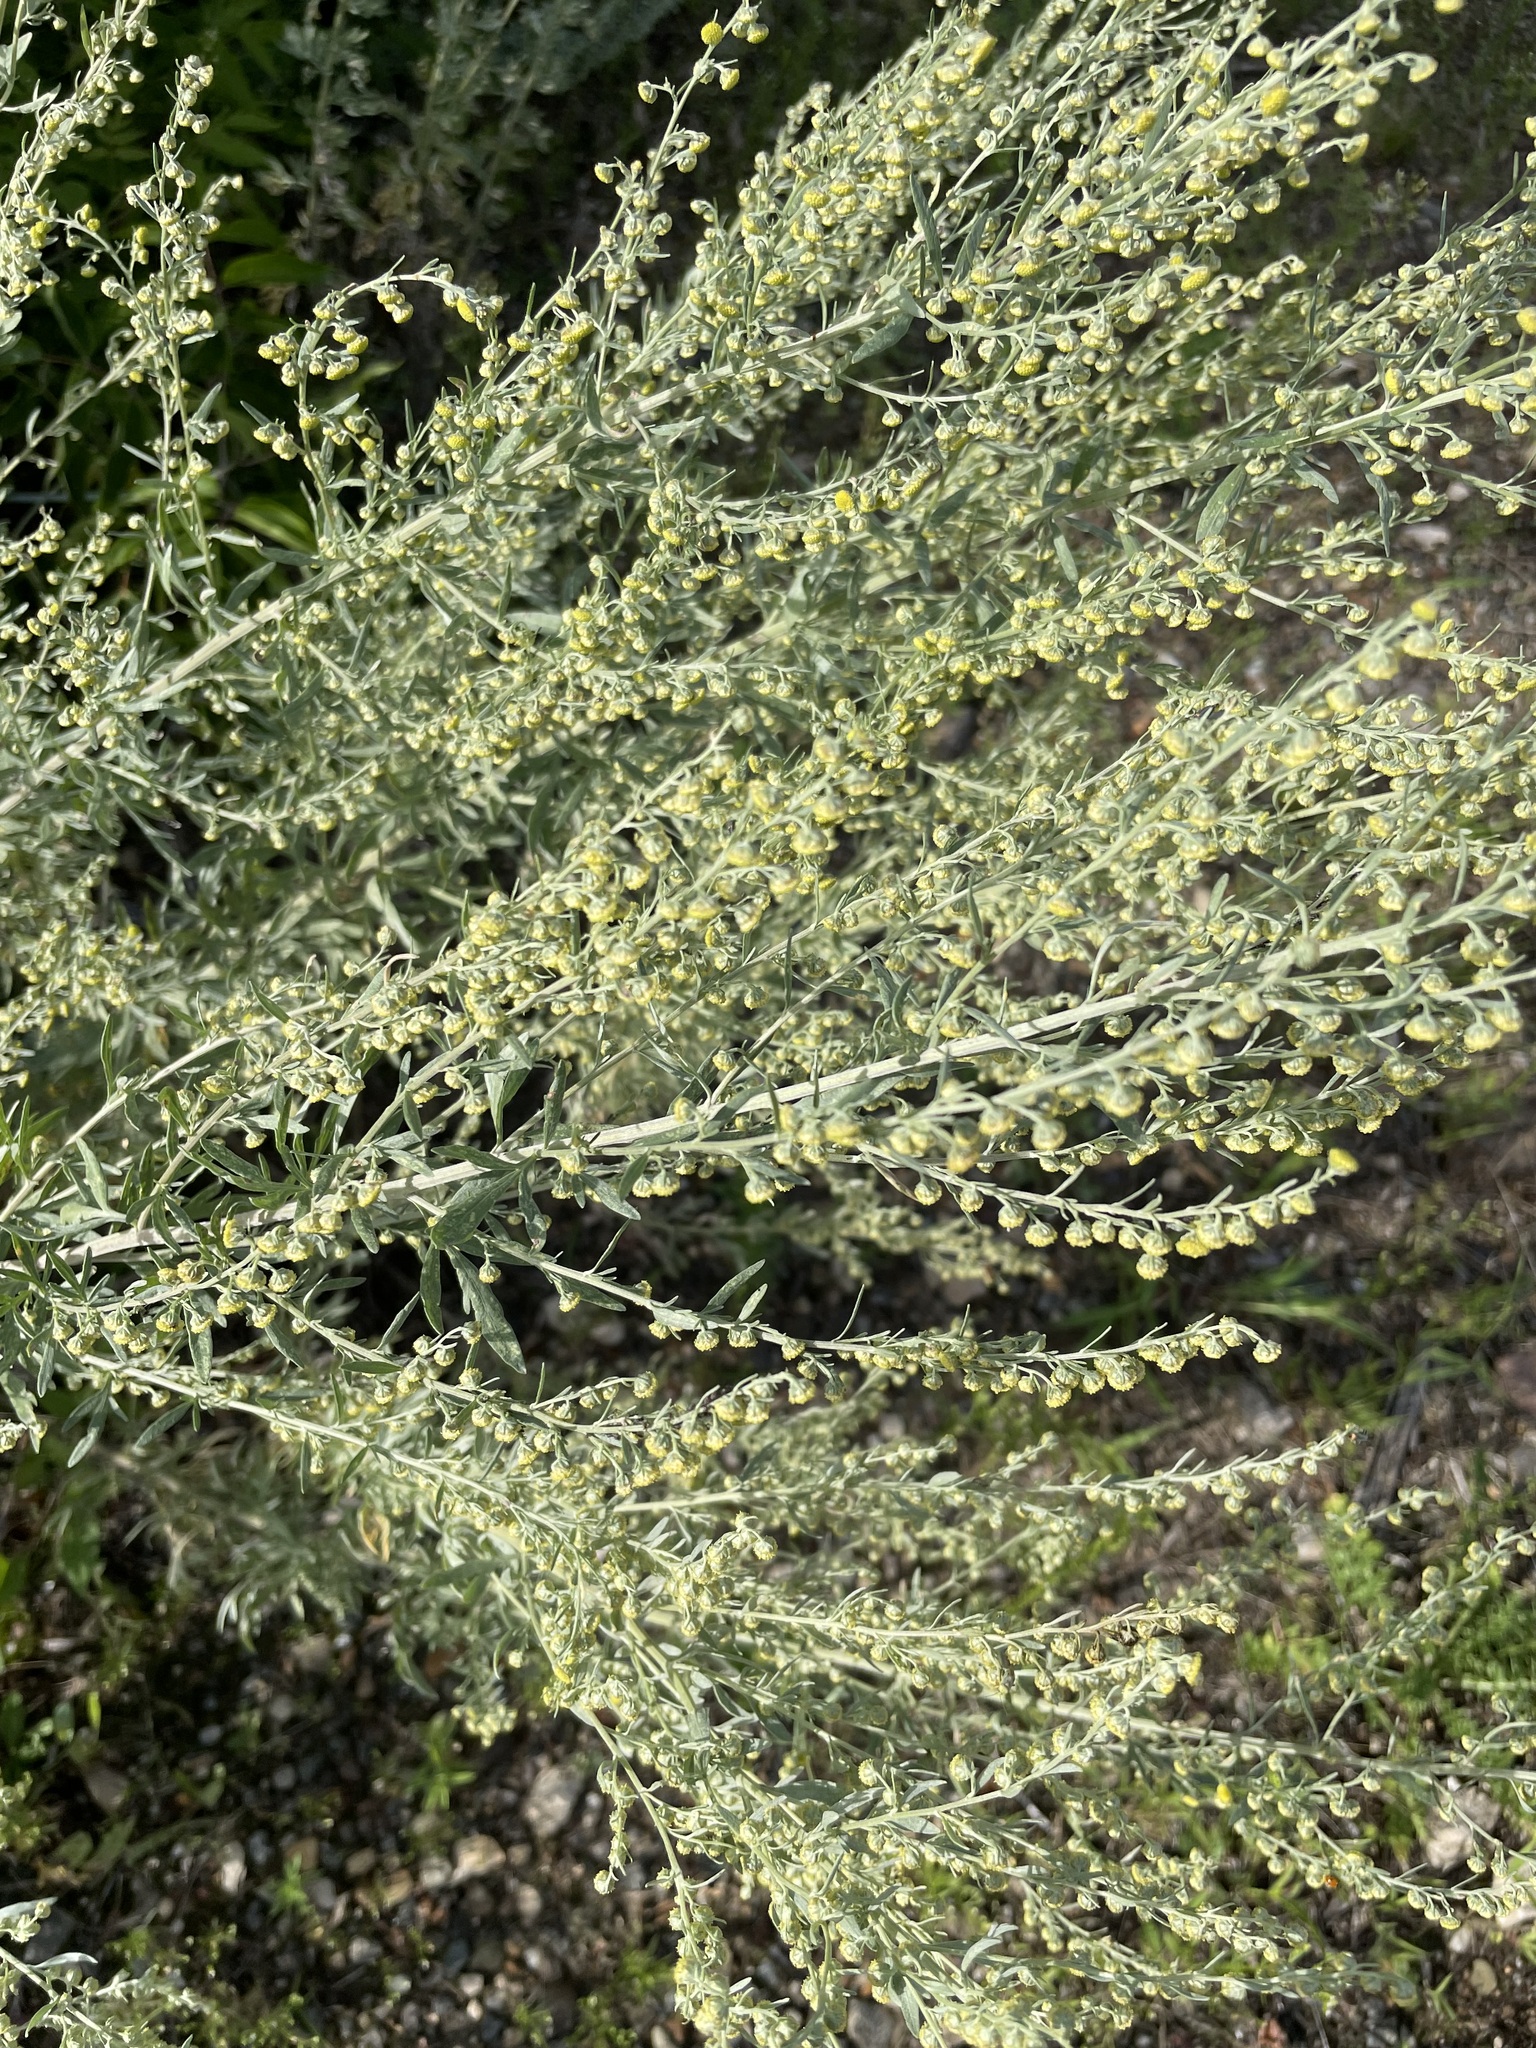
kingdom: Plantae
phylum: Tracheophyta
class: Magnoliopsida
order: Asterales
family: Asteraceae
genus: Artemisia
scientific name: Artemisia absinthium
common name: Wormwood
